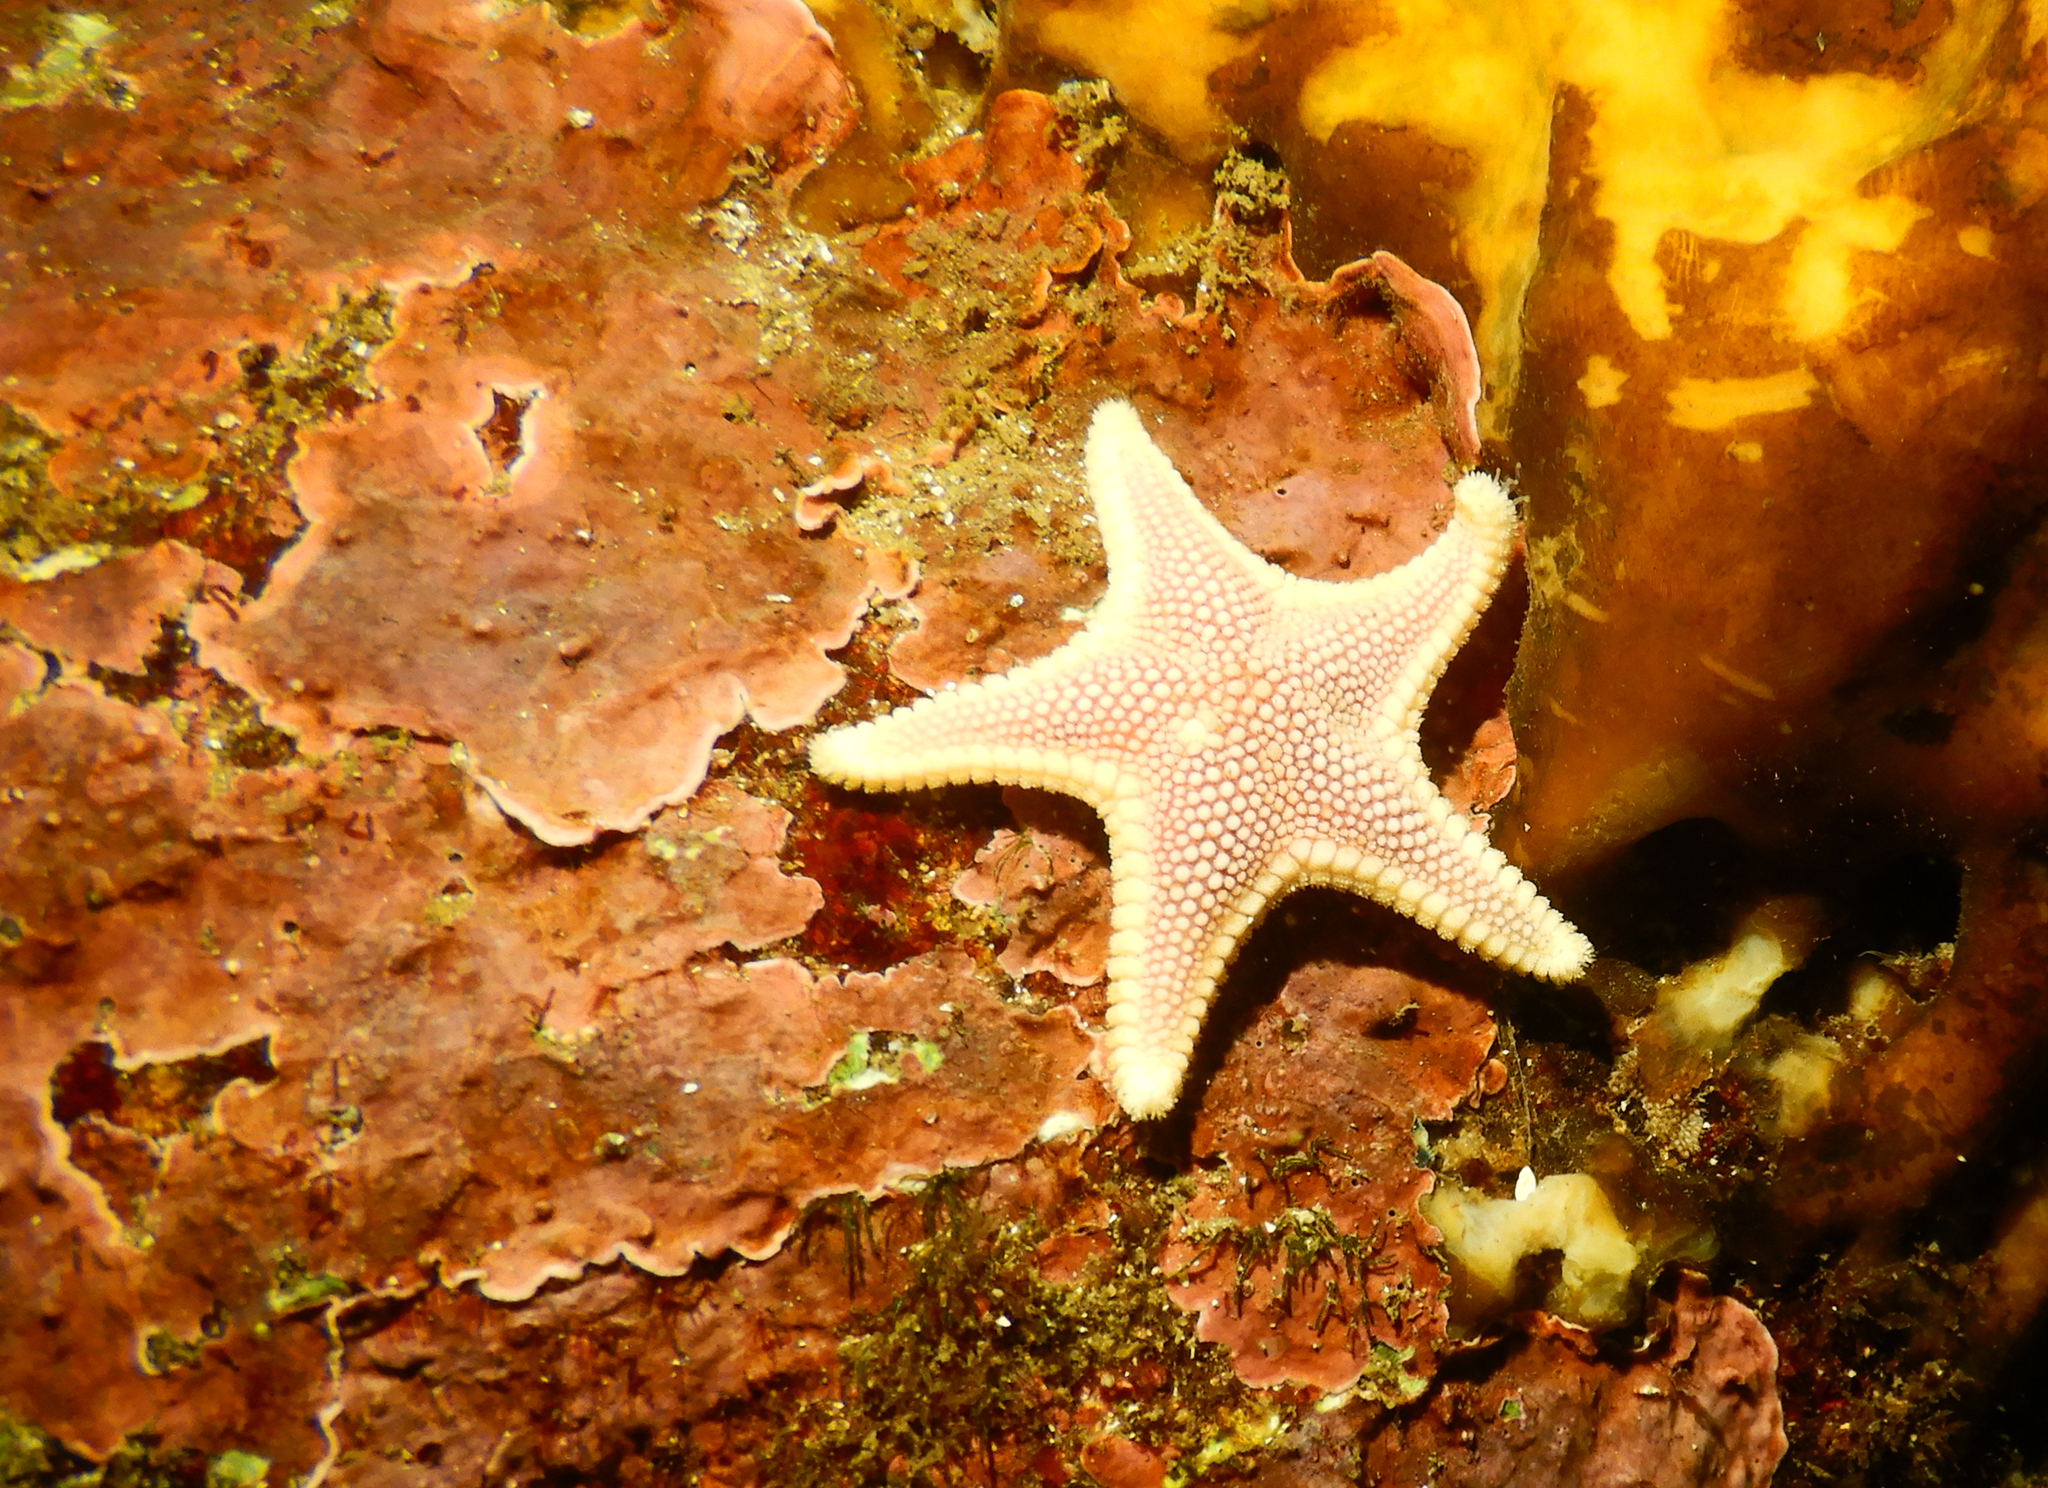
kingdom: Animalia
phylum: Echinodermata
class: Asteroidea
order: Valvatida
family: Odontasteridae
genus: Odontaster
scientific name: Odontaster penicillatus
